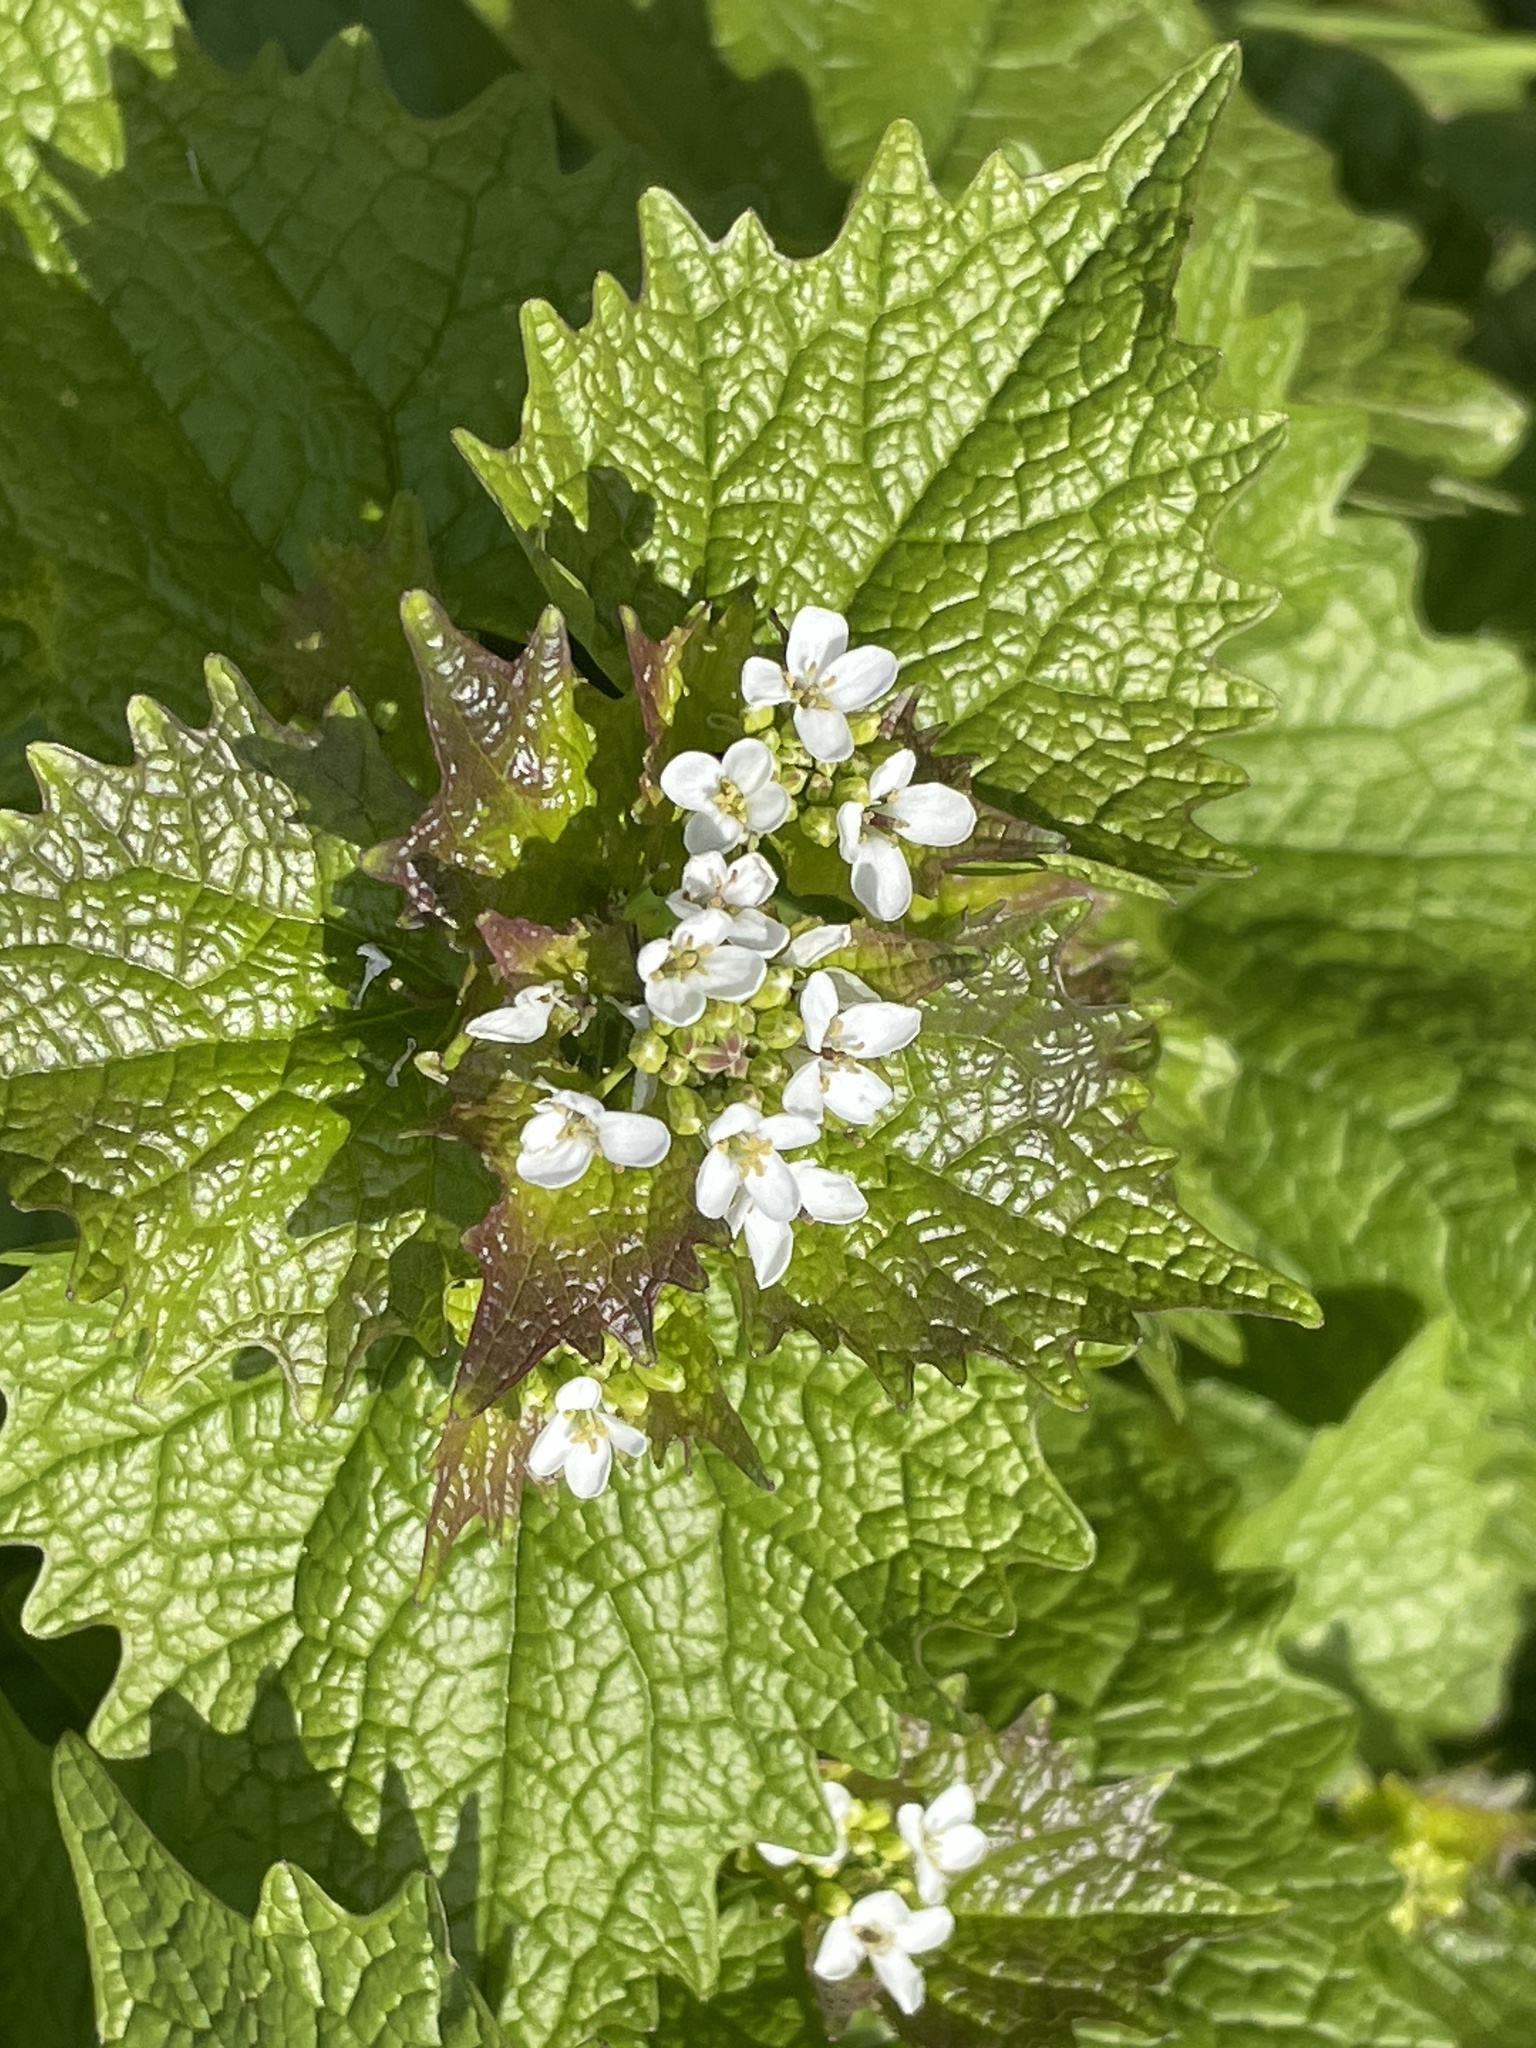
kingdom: Plantae
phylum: Tracheophyta
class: Magnoliopsida
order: Brassicales
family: Brassicaceae
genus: Alliaria
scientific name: Alliaria petiolata
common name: Garlic mustard
